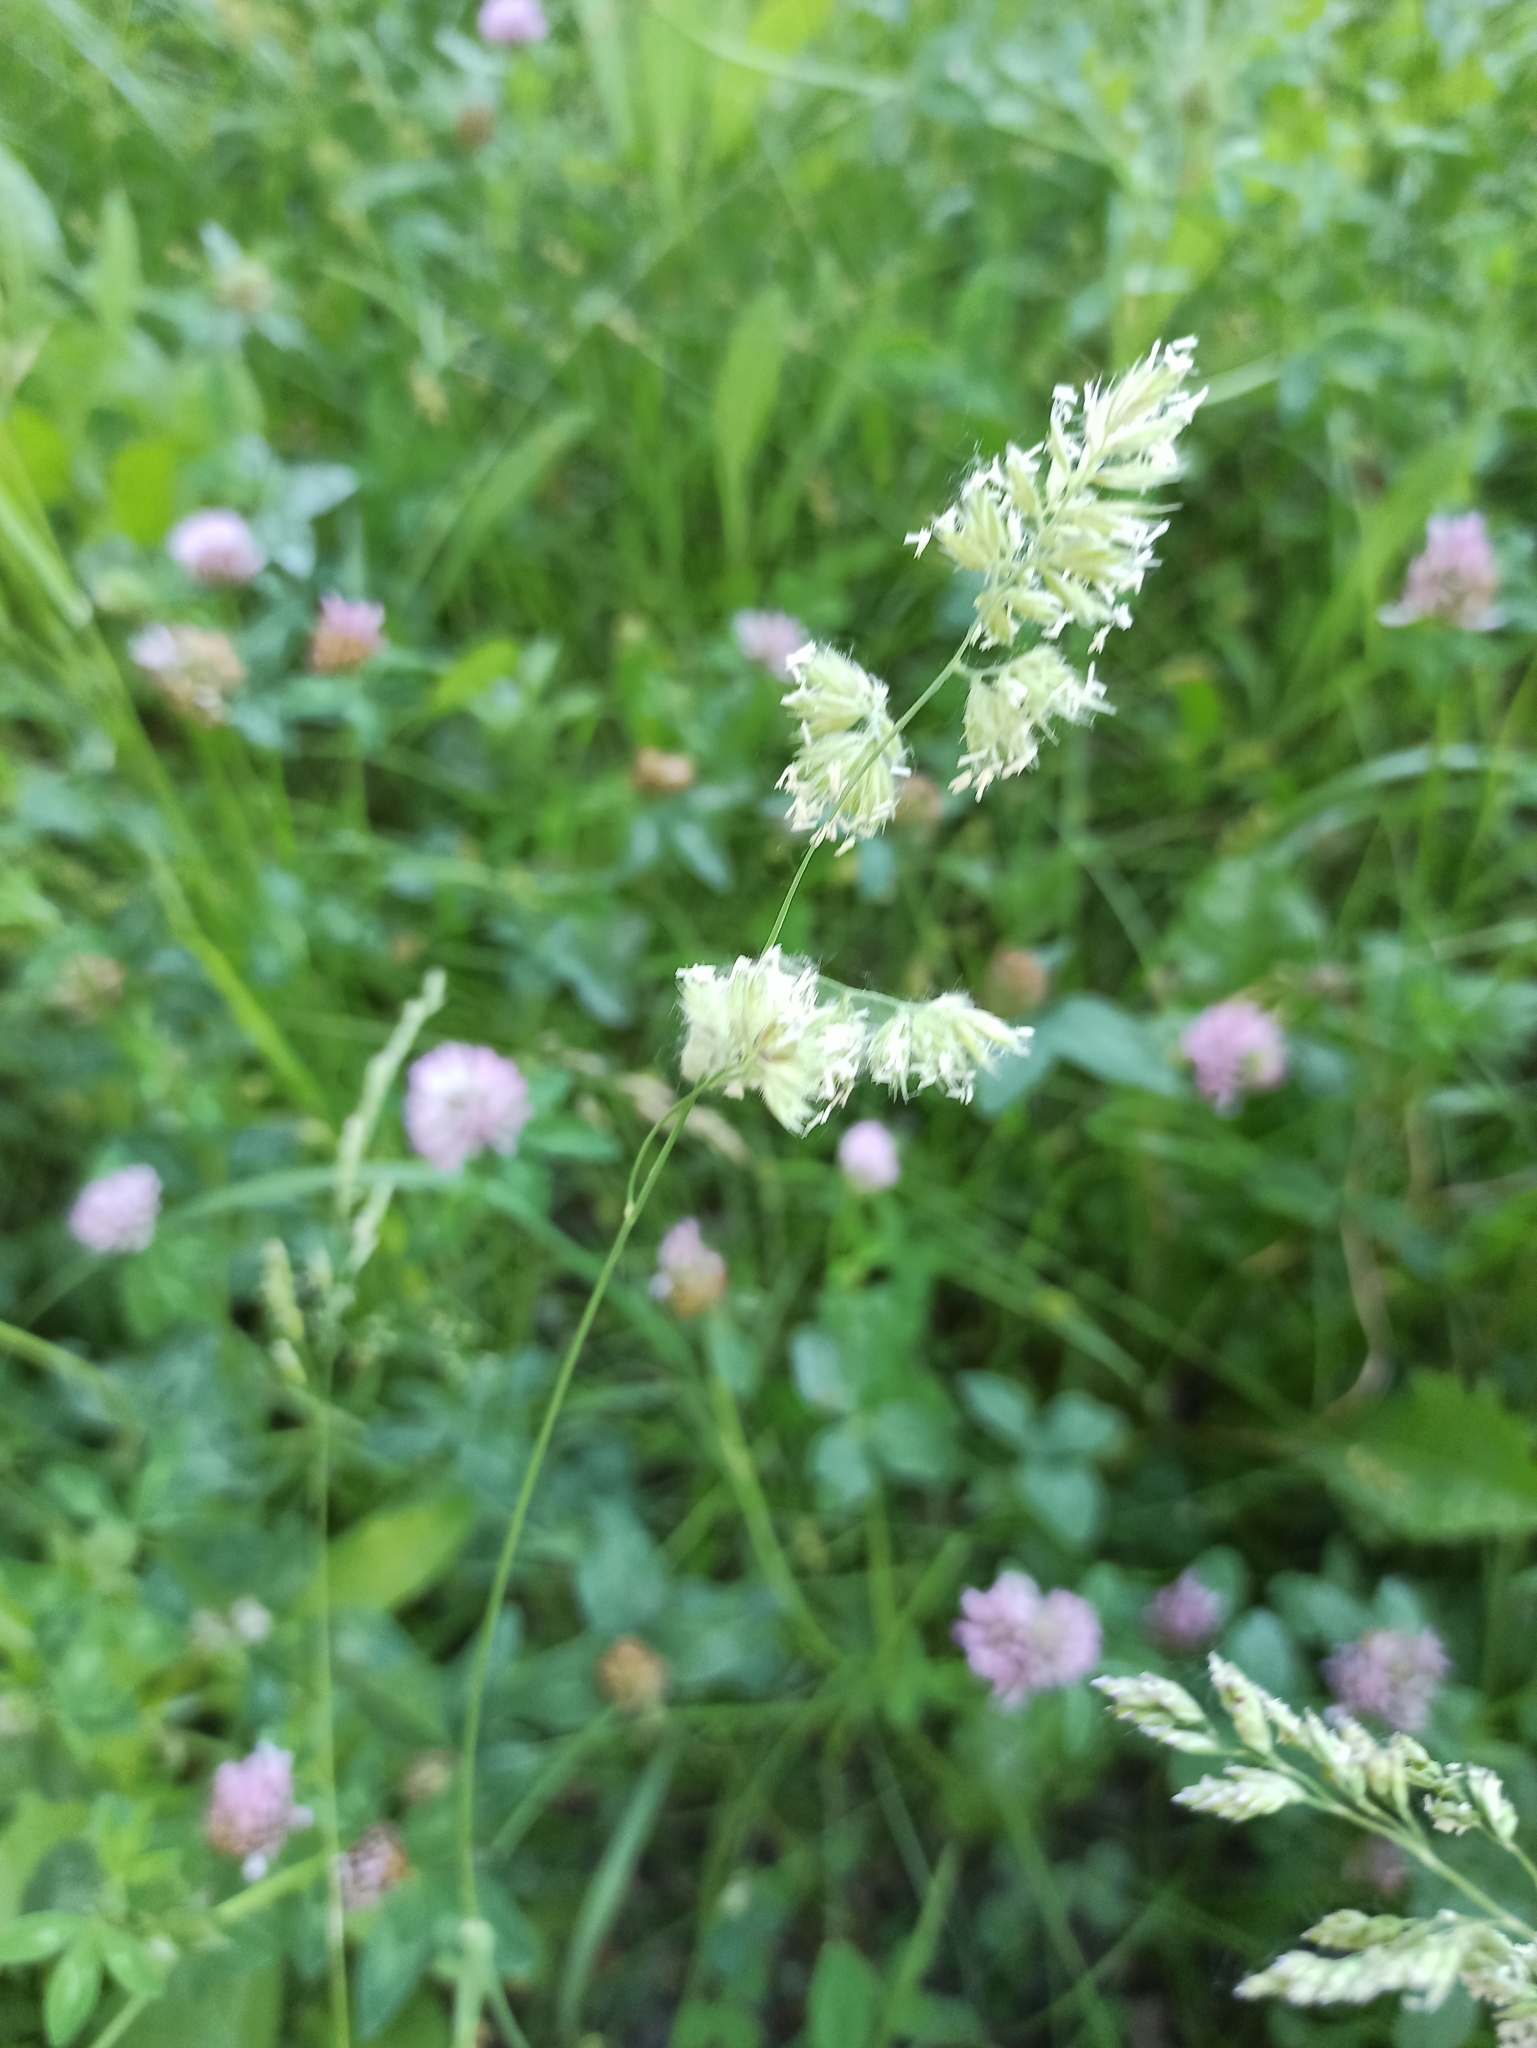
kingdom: Plantae
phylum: Tracheophyta
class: Liliopsida
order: Poales
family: Poaceae
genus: Dactylis
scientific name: Dactylis glomerata
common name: Orchardgrass
